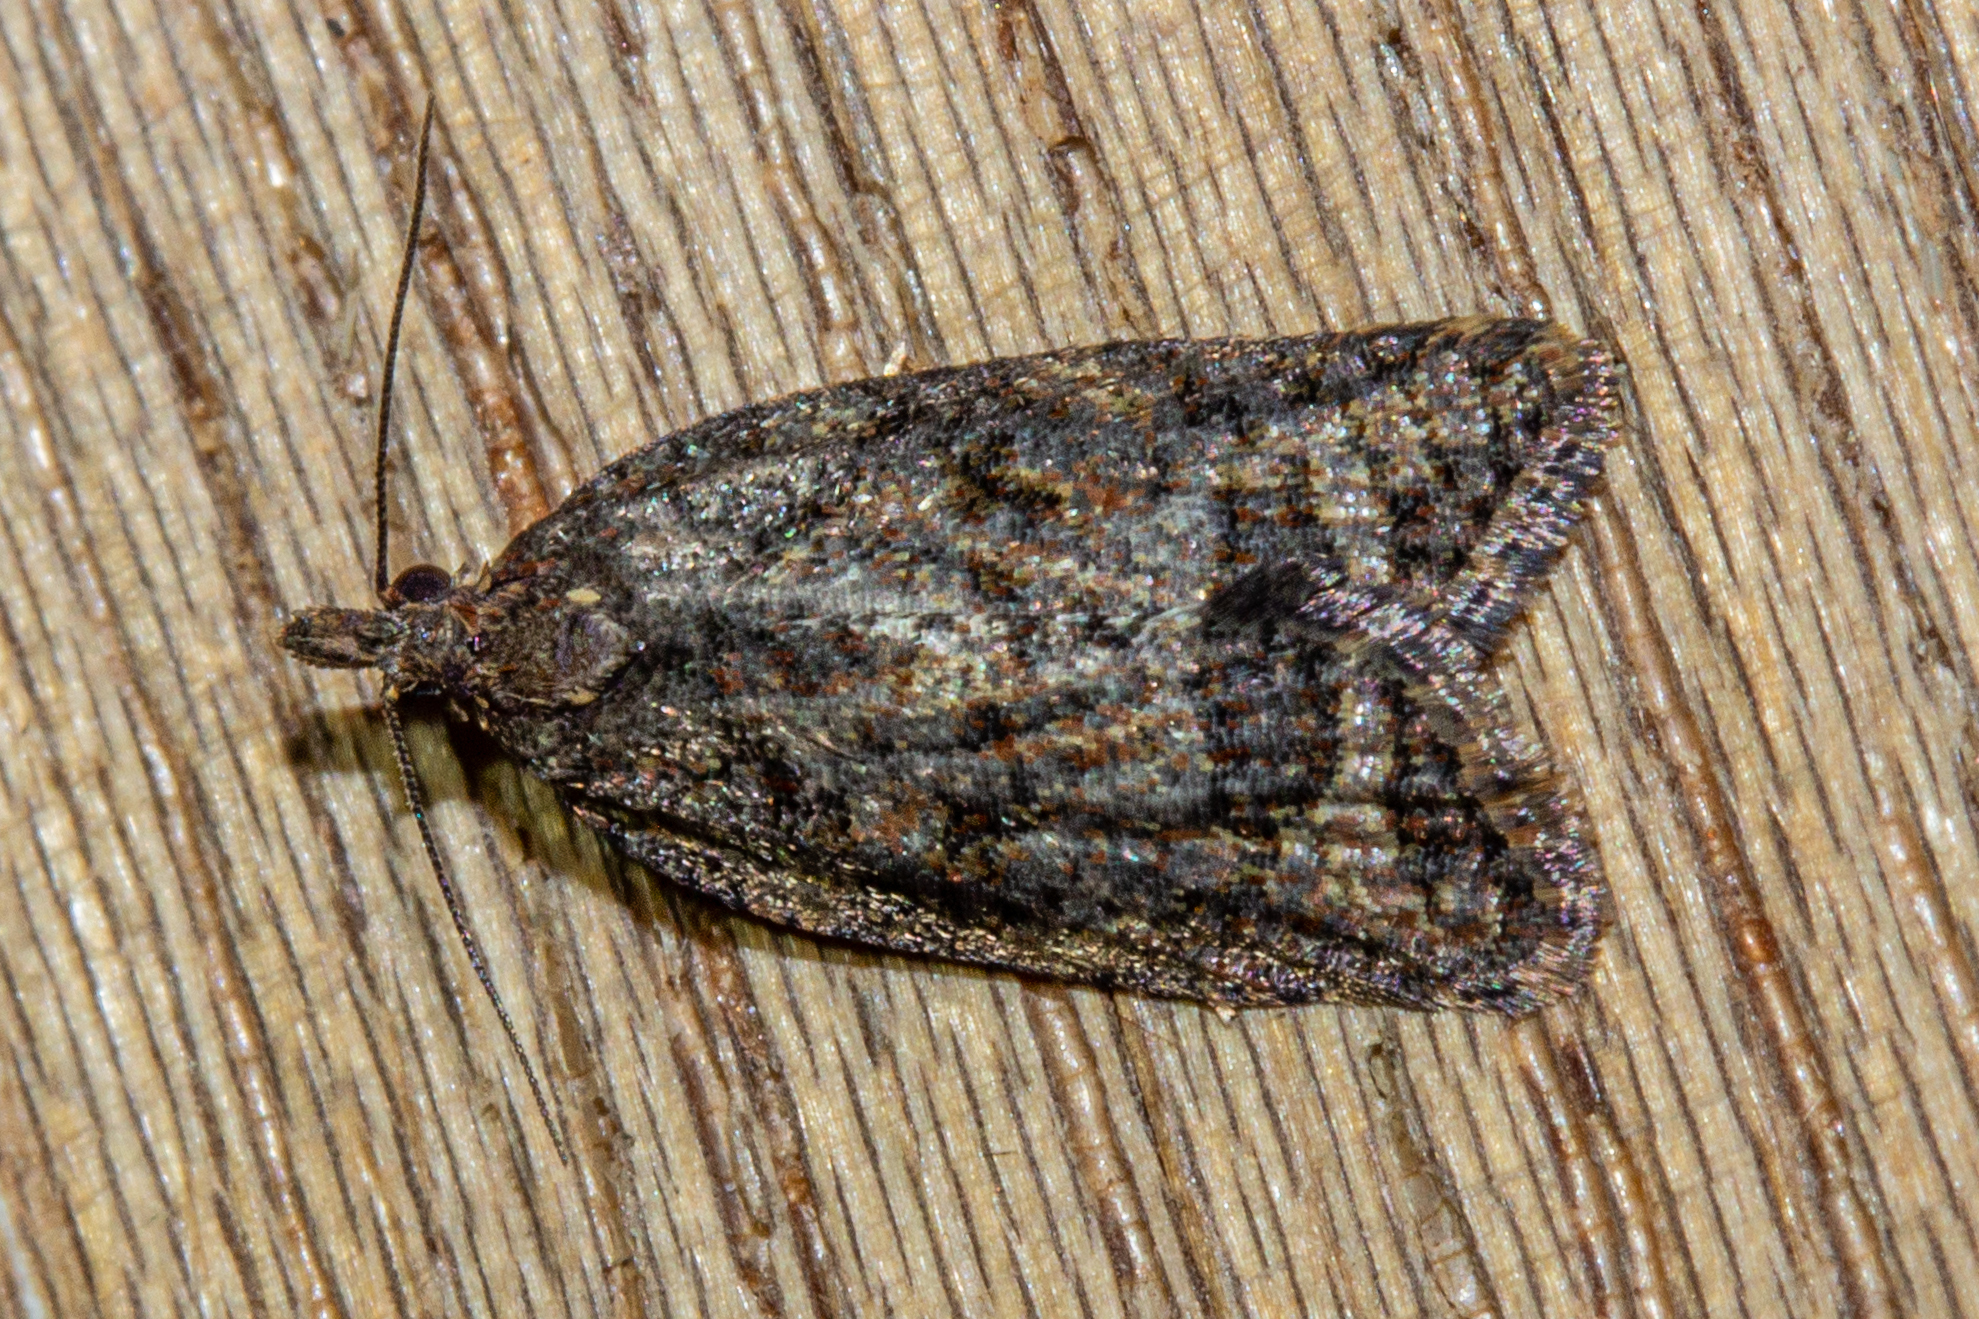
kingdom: Animalia
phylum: Arthropoda
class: Insecta
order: Lepidoptera
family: Tortricidae
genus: Capua
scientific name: Capua intractana
